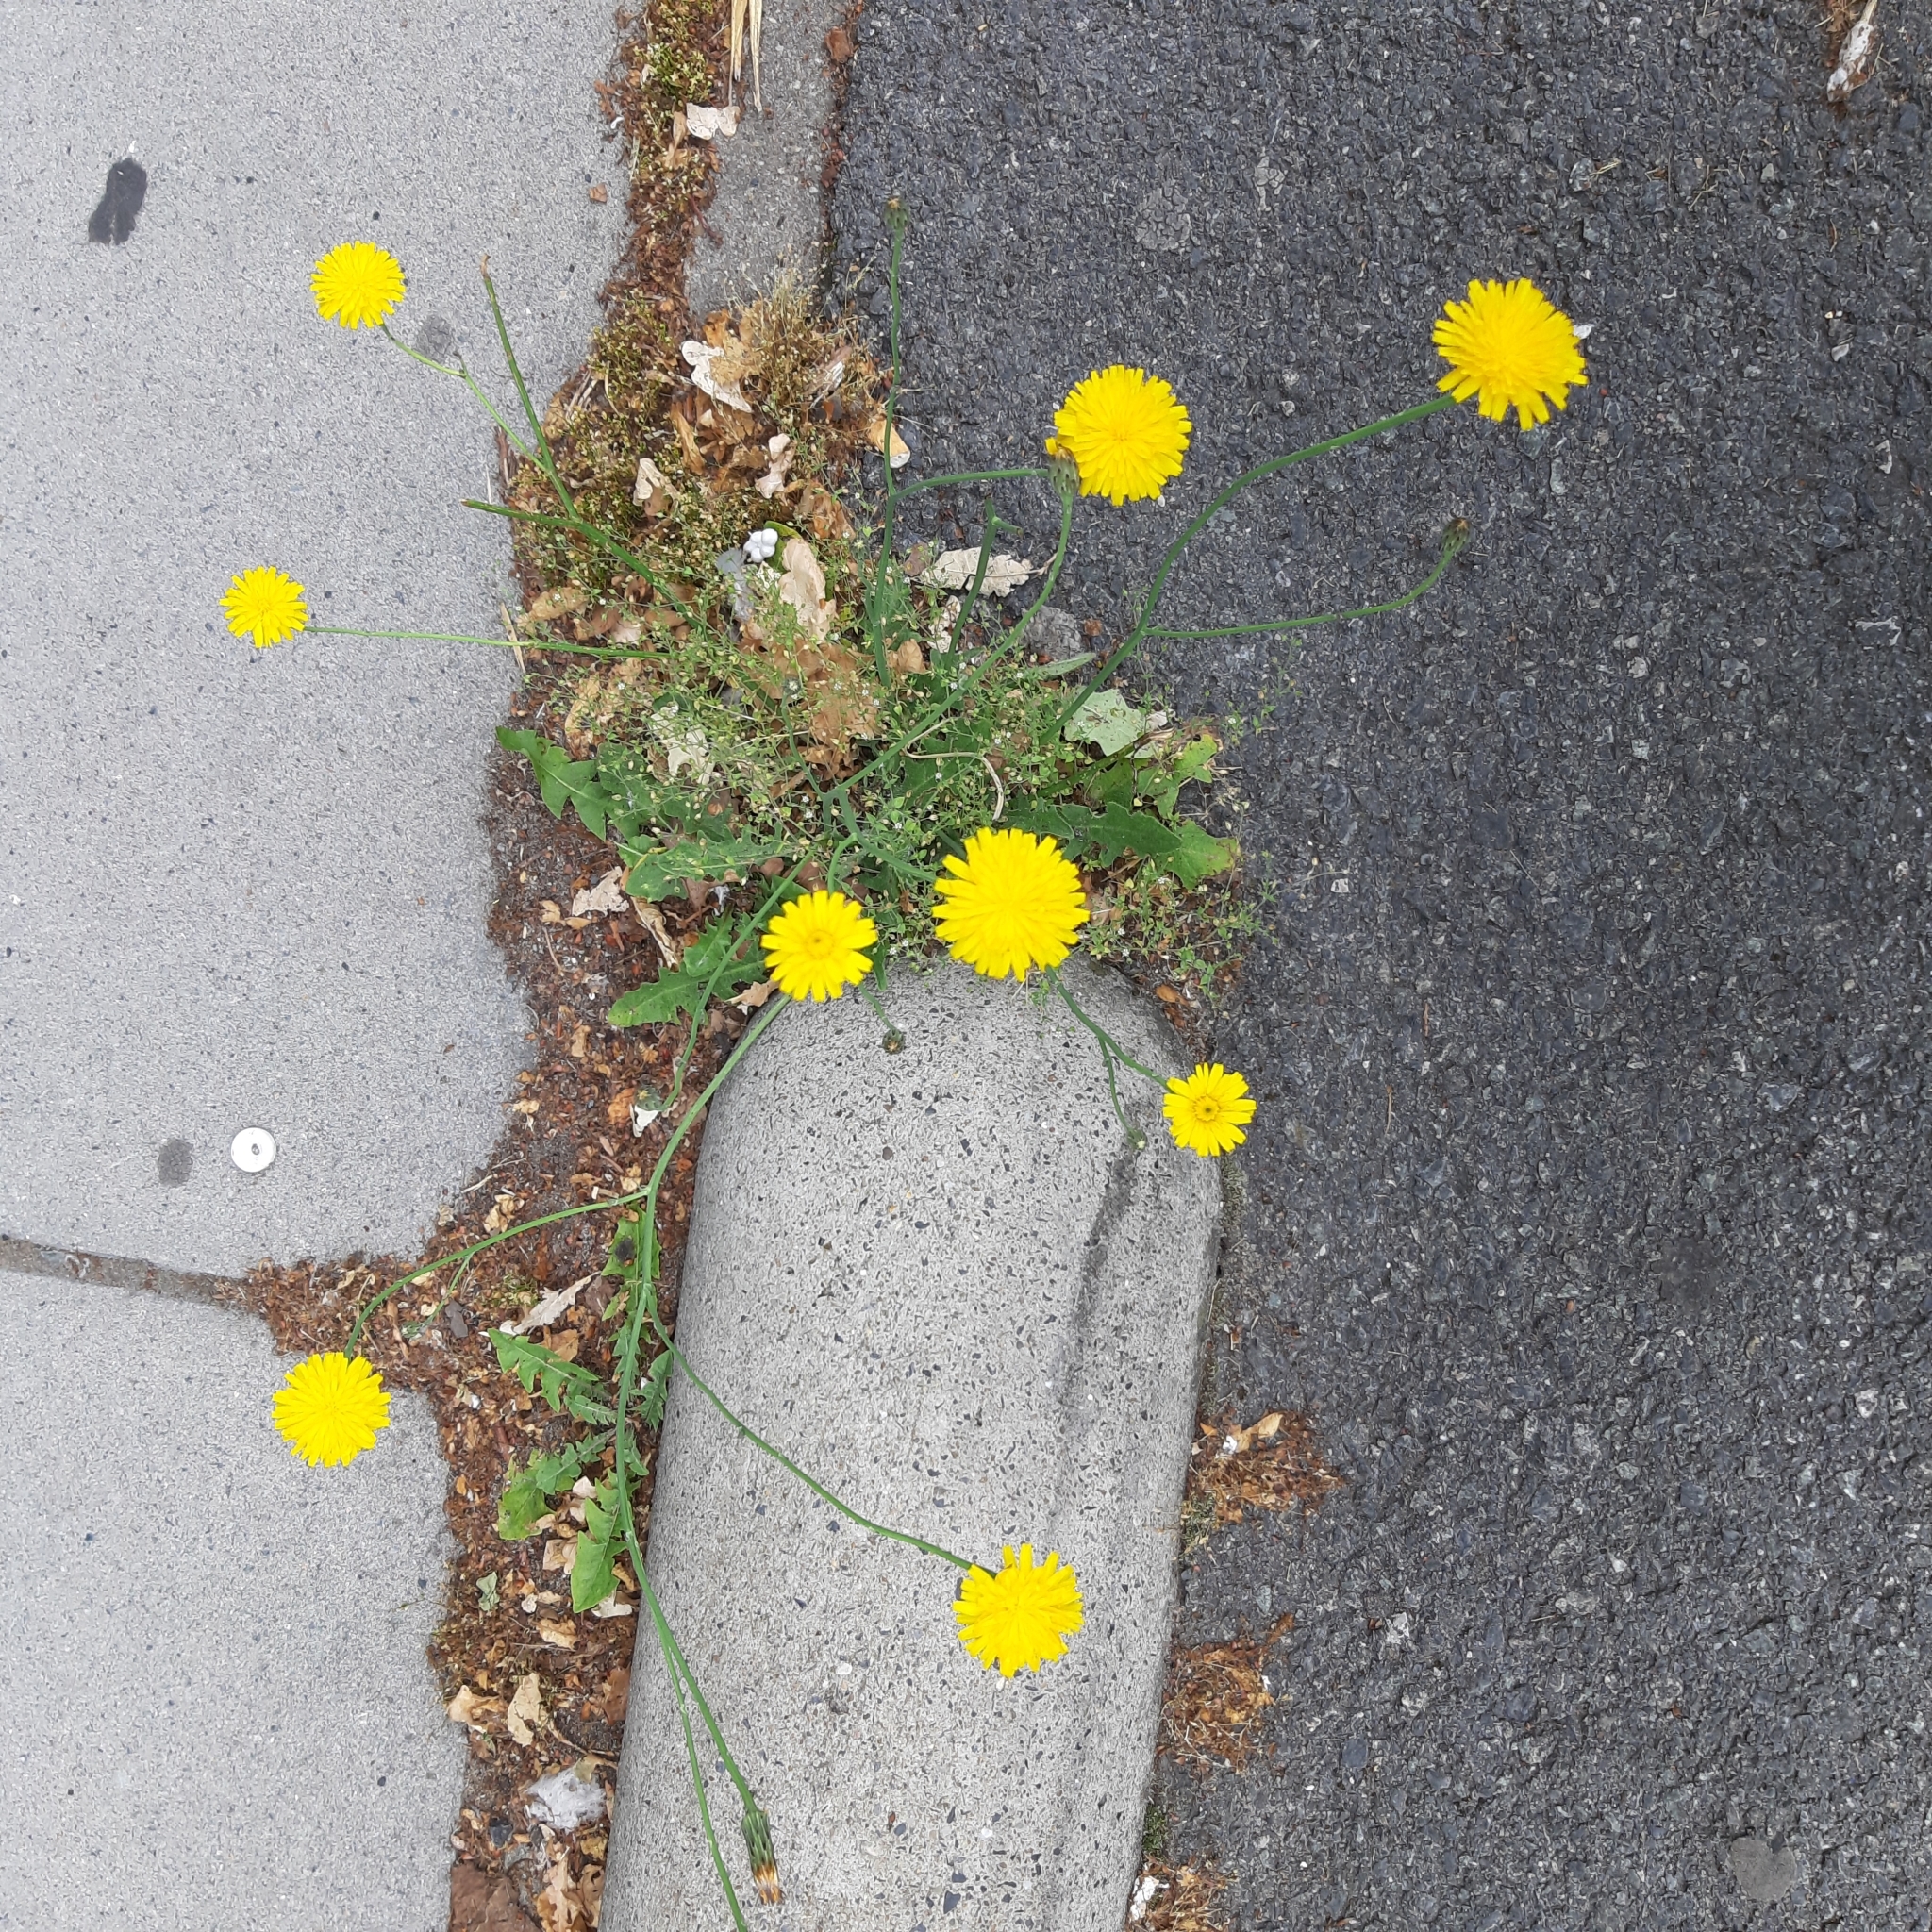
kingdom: Plantae
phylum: Tracheophyta
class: Magnoliopsida
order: Asterales
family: Asteraceae
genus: Hypochaeris
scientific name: Hypochaeris radicata
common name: Flatweed
